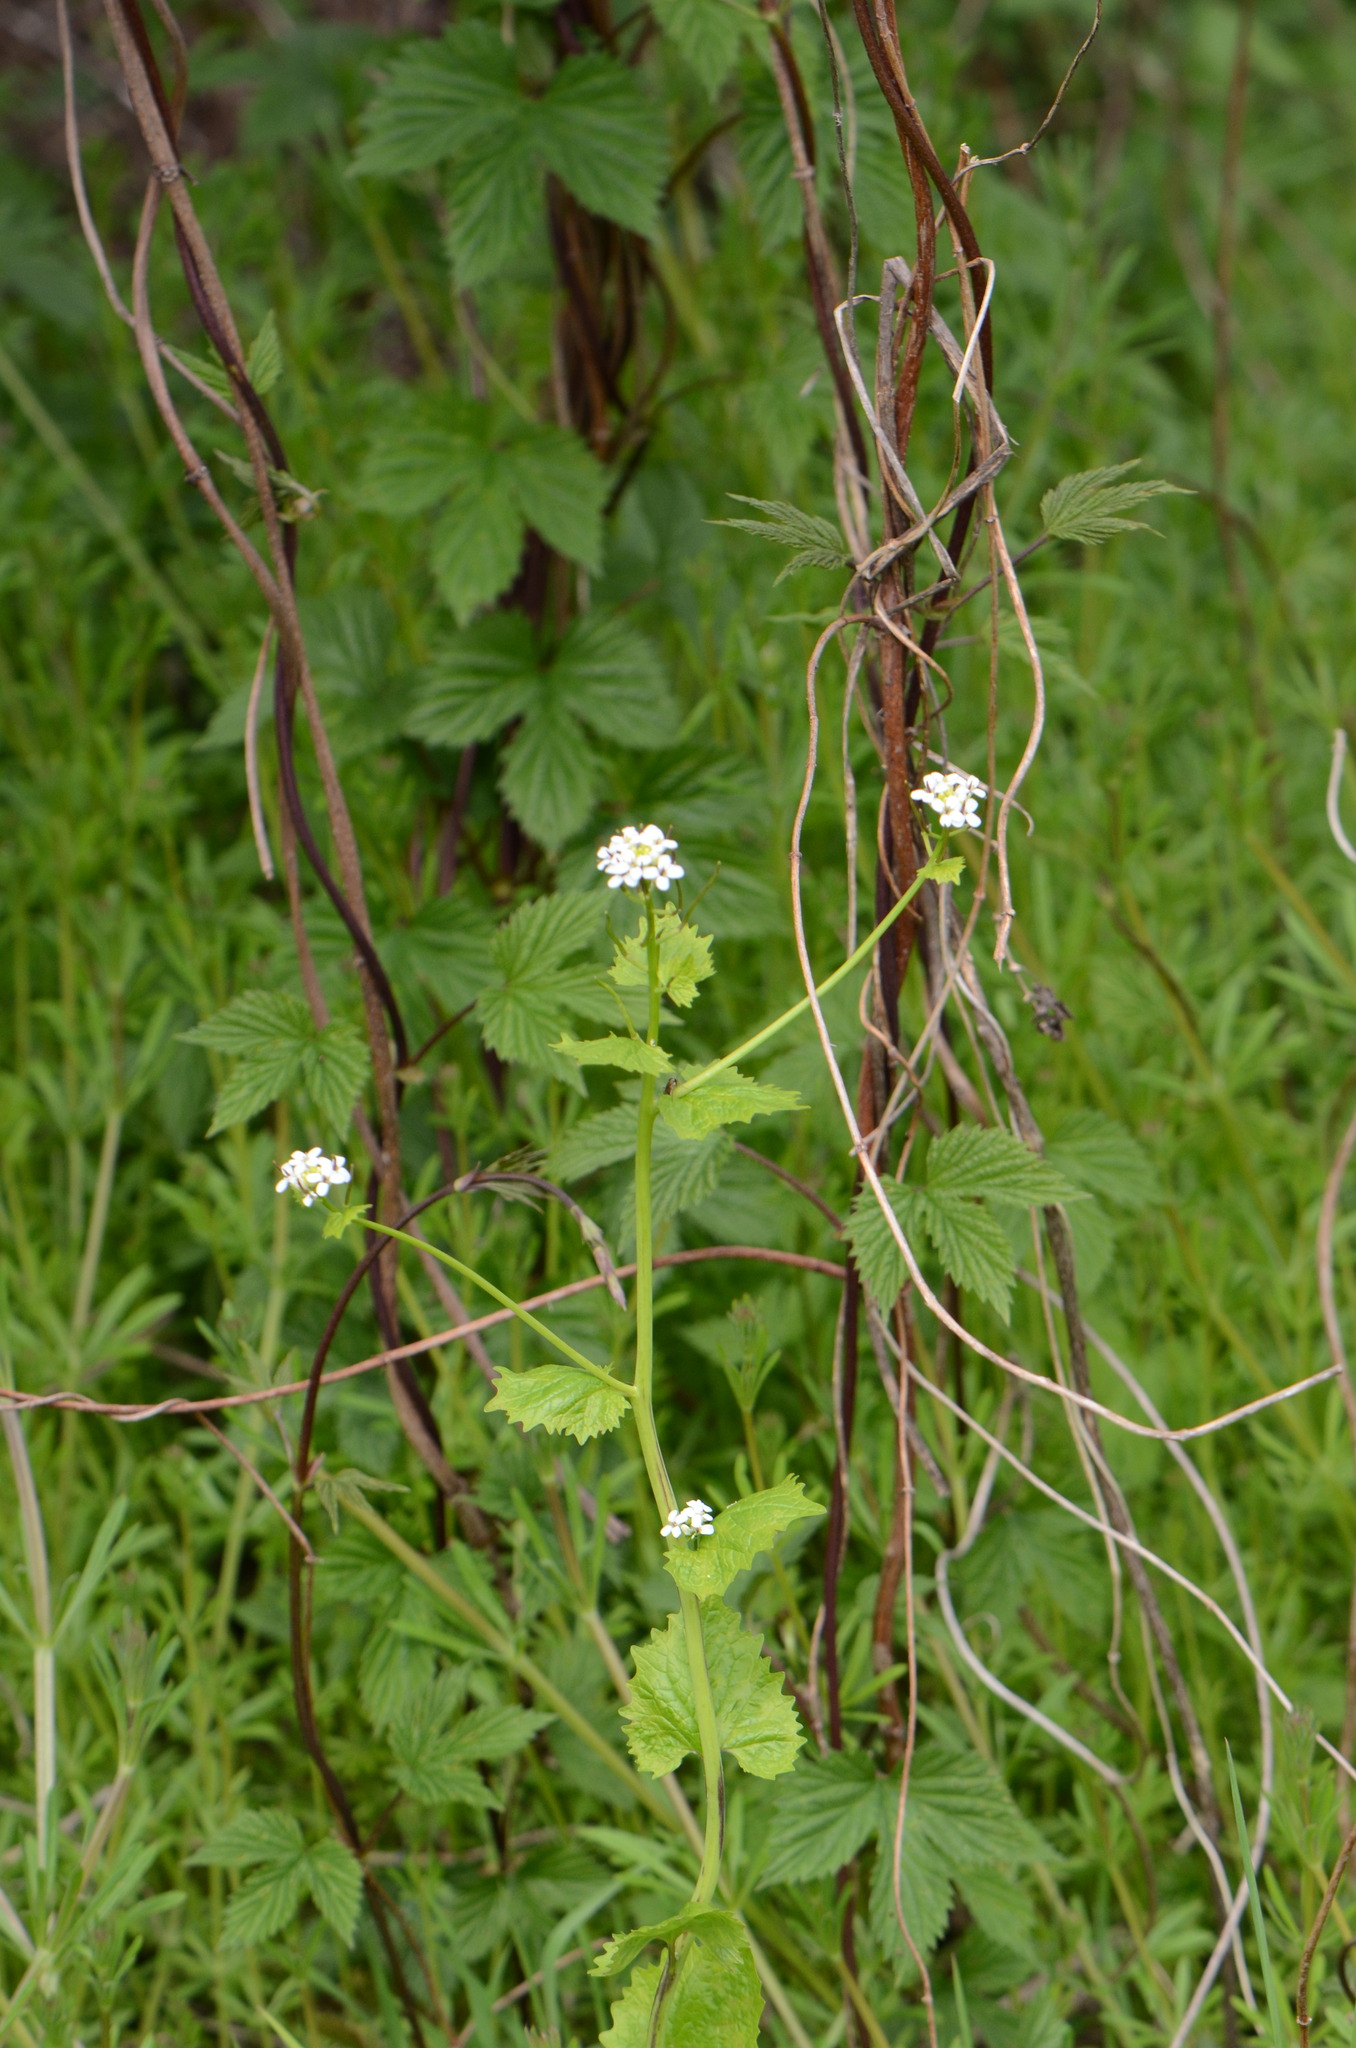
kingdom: Plantae
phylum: Tracheophyta
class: Magnoliopsida
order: Brassicales
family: Brassicaceae
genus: Alliaria
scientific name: Alliaria petiolata
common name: Garlic mustard
